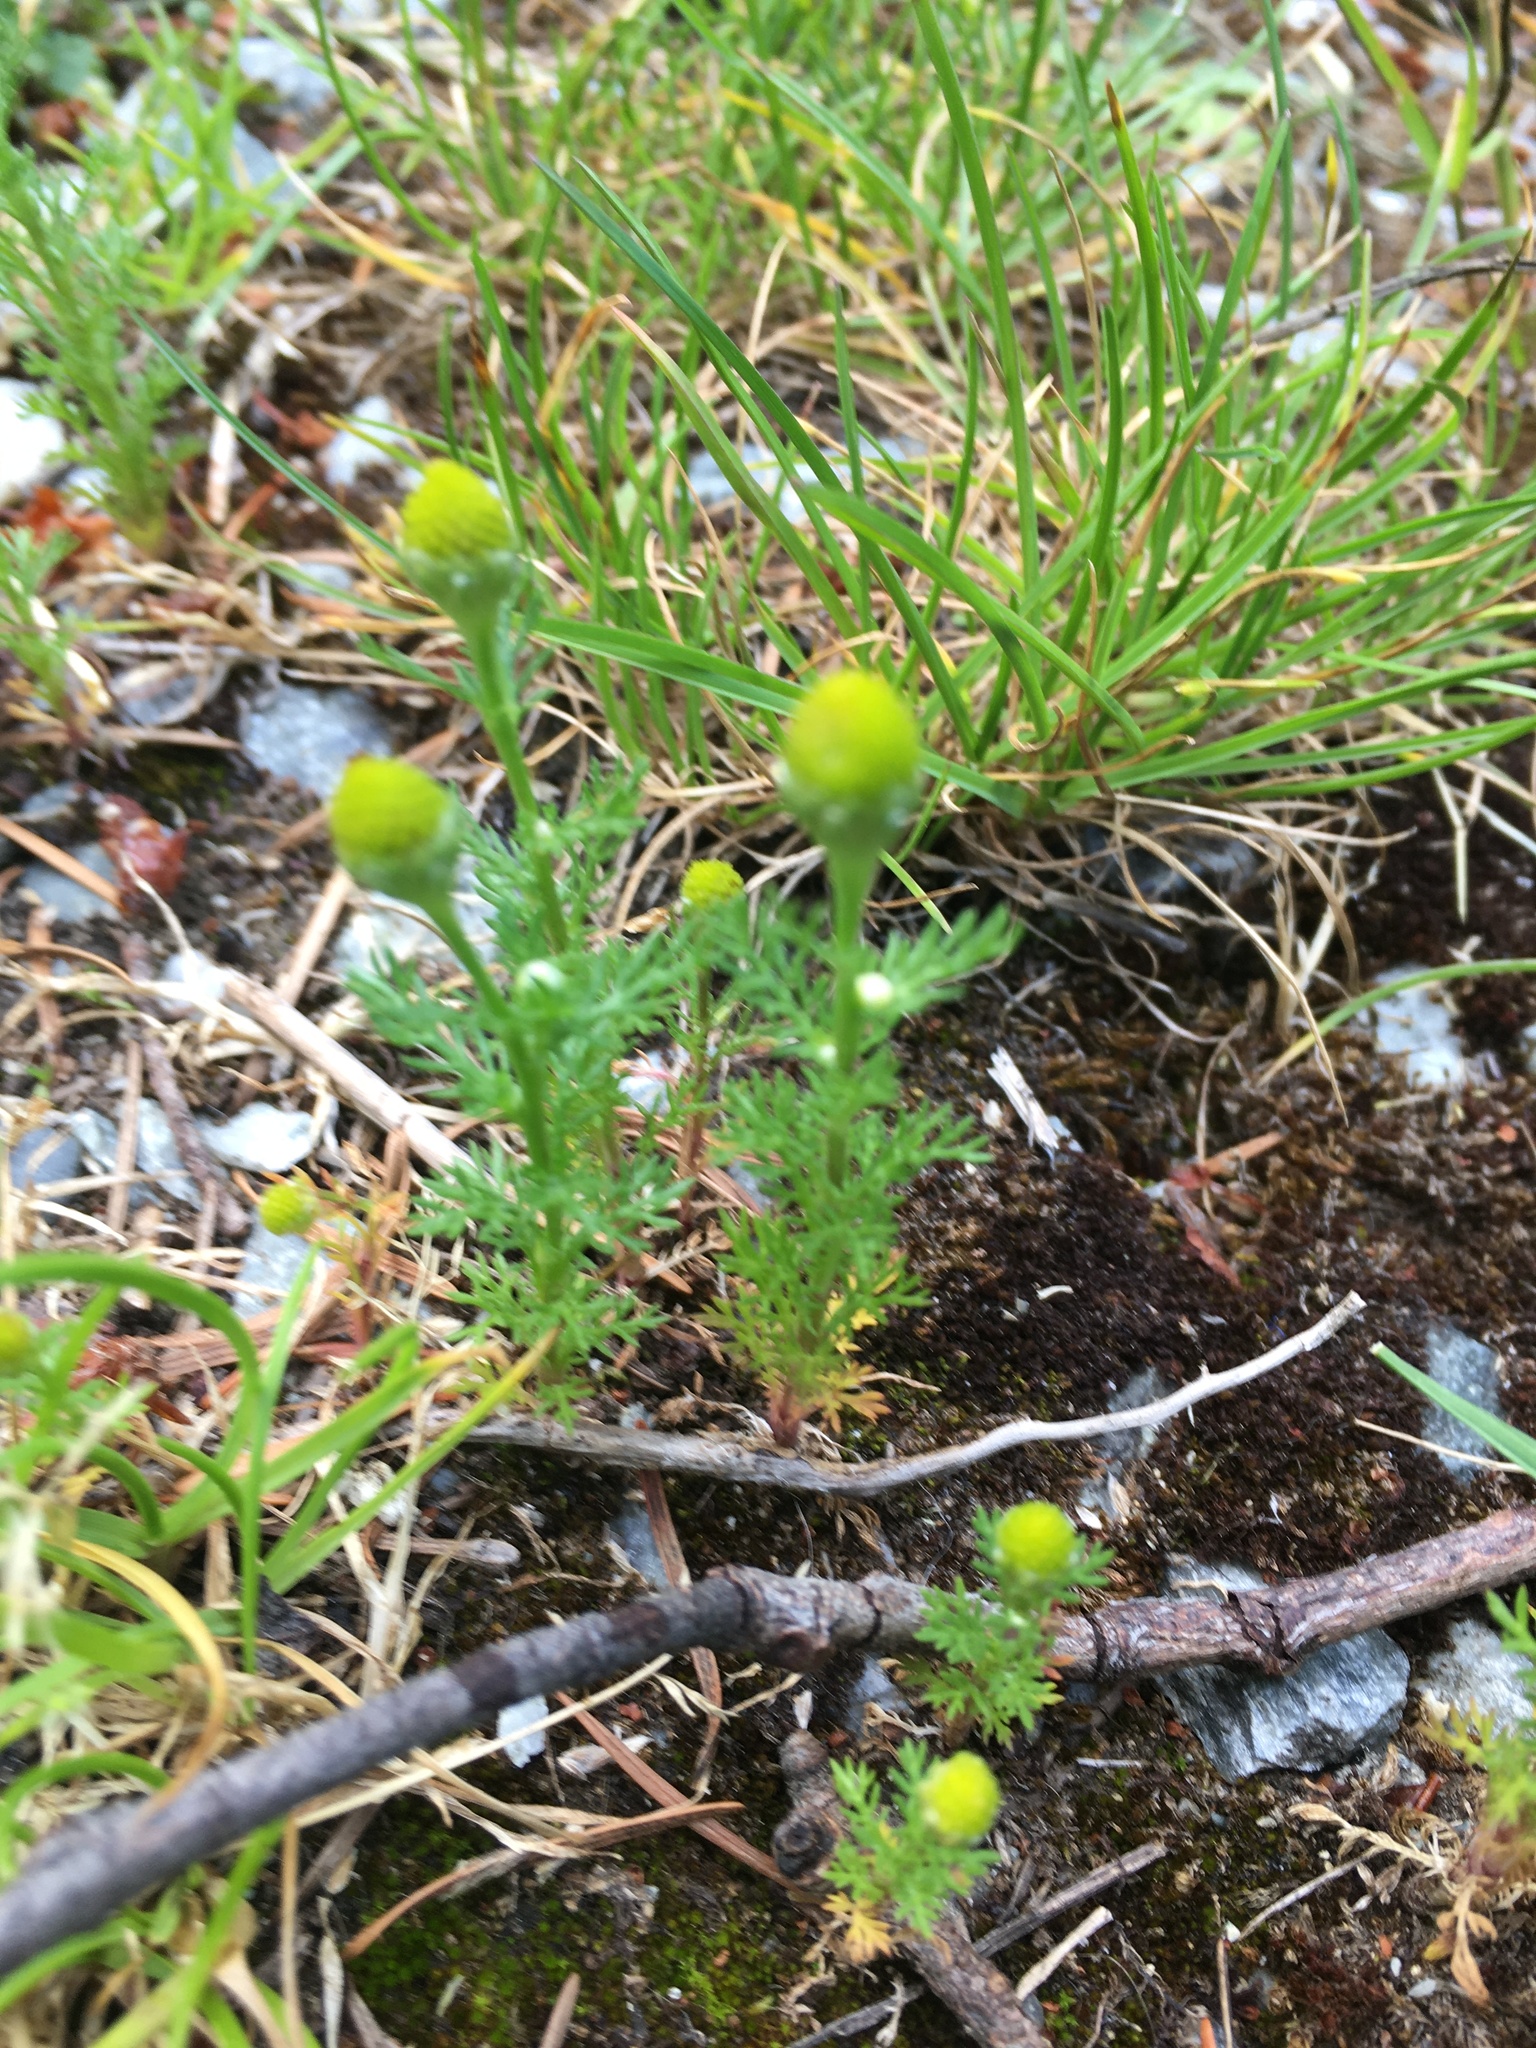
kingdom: Plantae
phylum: Tracheophyta
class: Magnoliopsida
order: Asterales
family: Asteraceae
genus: Matricaria
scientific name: Matricaria discoidea
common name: Disc mayweed
